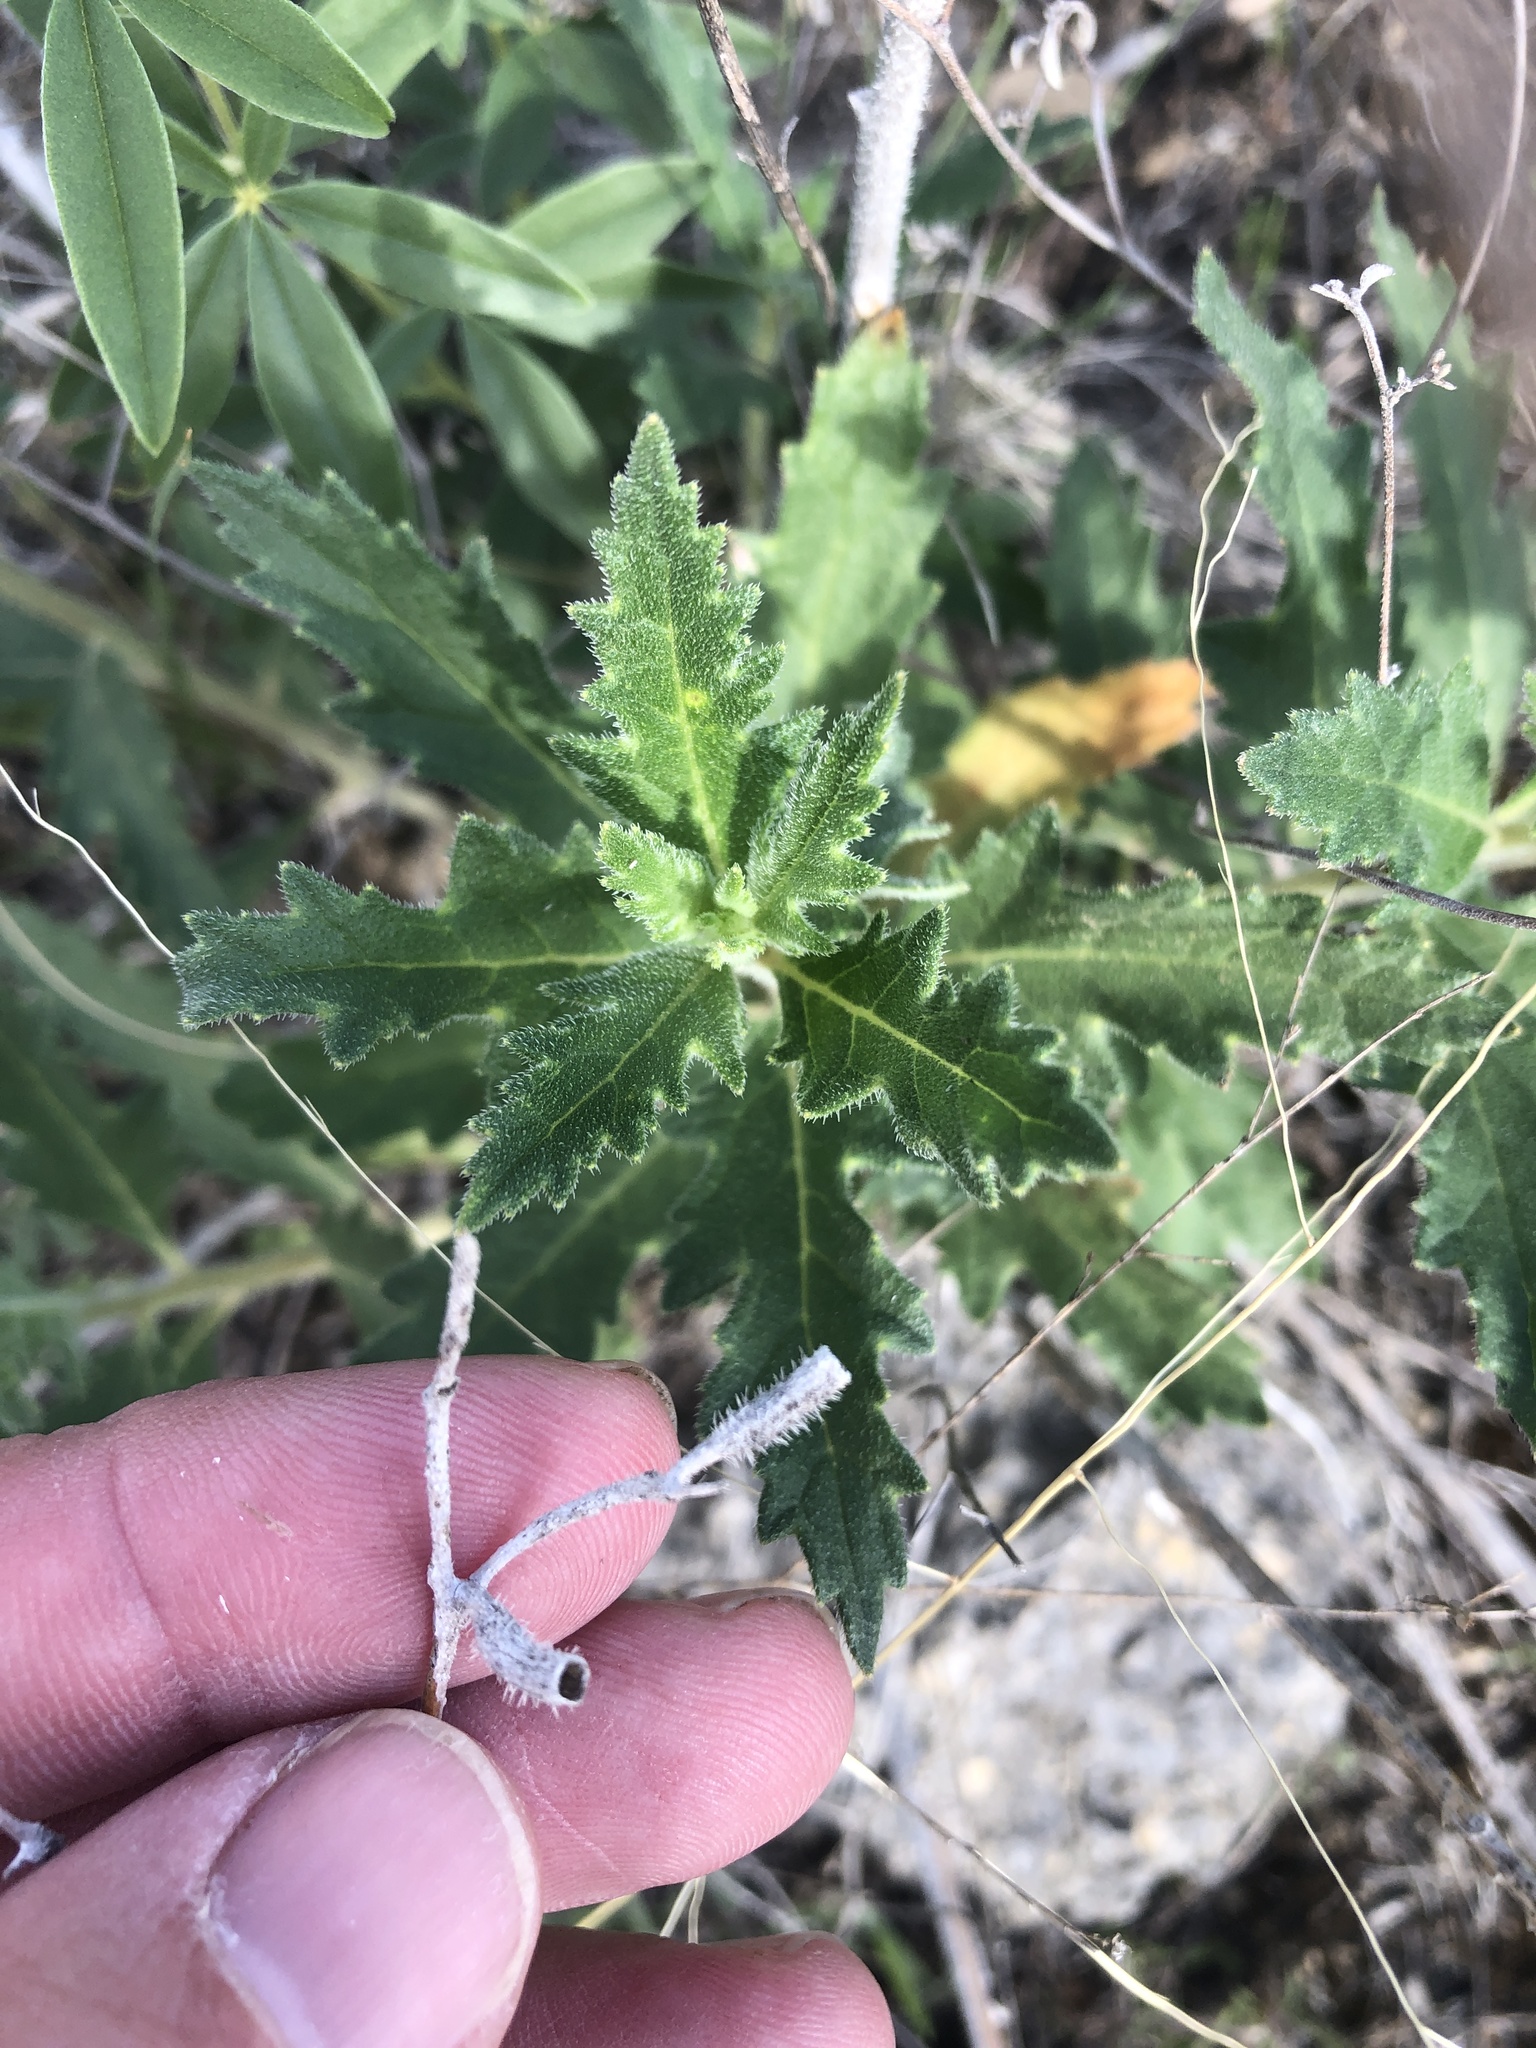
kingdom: Plantae
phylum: Tracheophyta
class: Magnoliopsida
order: Cornales
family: Loasaceae
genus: Mentzelia
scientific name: Mentzelia oligosperma
